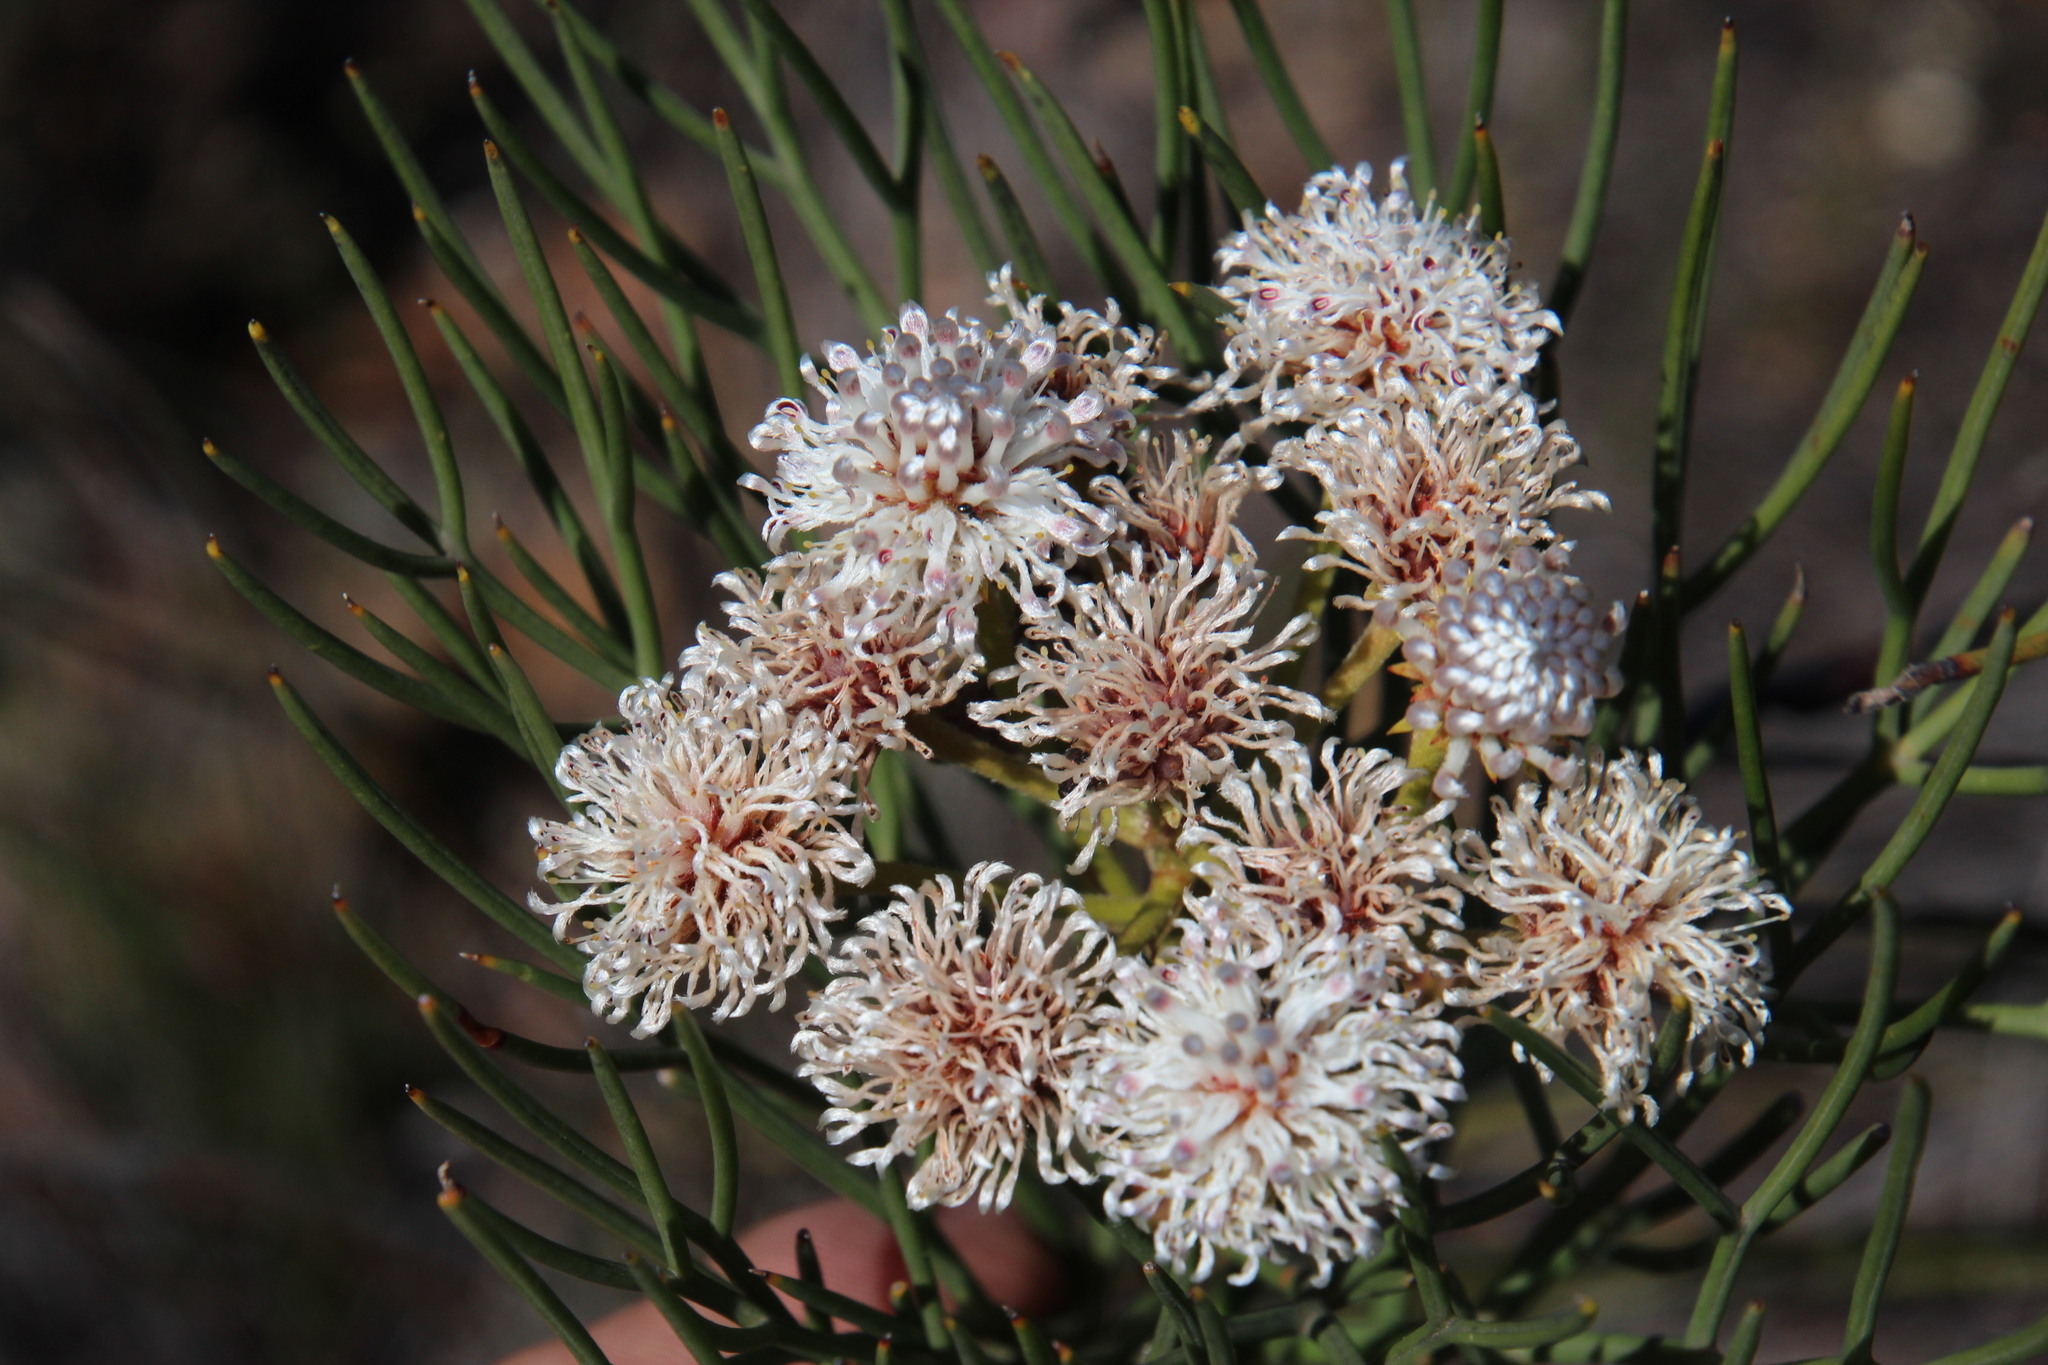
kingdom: Plantae
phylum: Tracheophyta
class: Magnoliopsida
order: Proteales
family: Proteaceae
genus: Serruria
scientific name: Serruria triternata
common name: Tulbagh spiderhead
